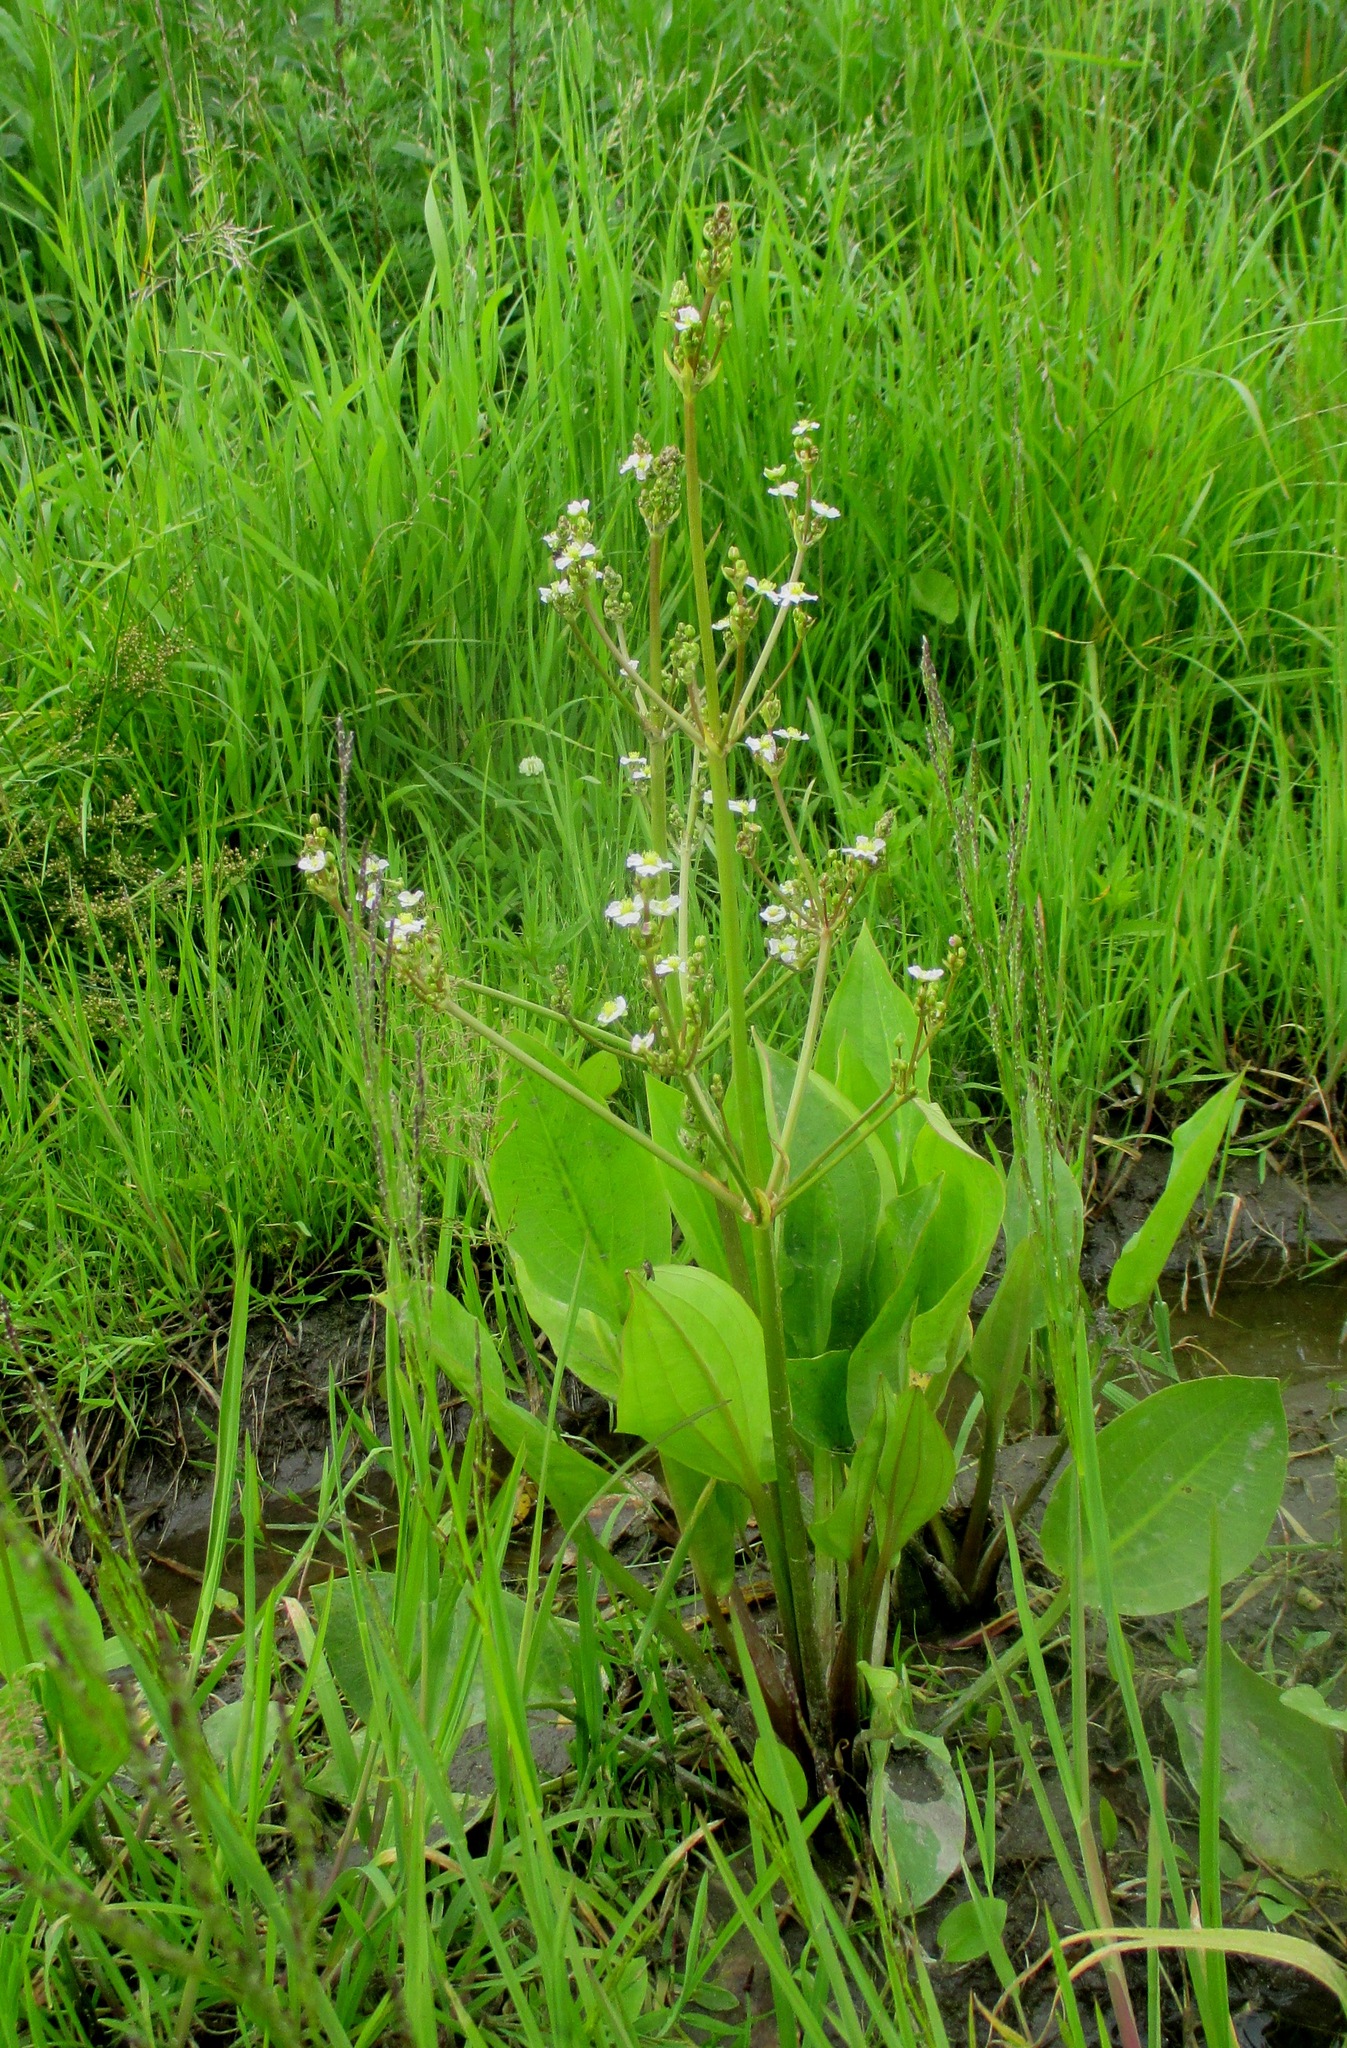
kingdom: Plantae
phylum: Tracheophyta
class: Liliopsida
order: Alismatales
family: Alismataceae
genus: Alisma
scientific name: Alisma plantago-aquatica
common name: Water-plantain
